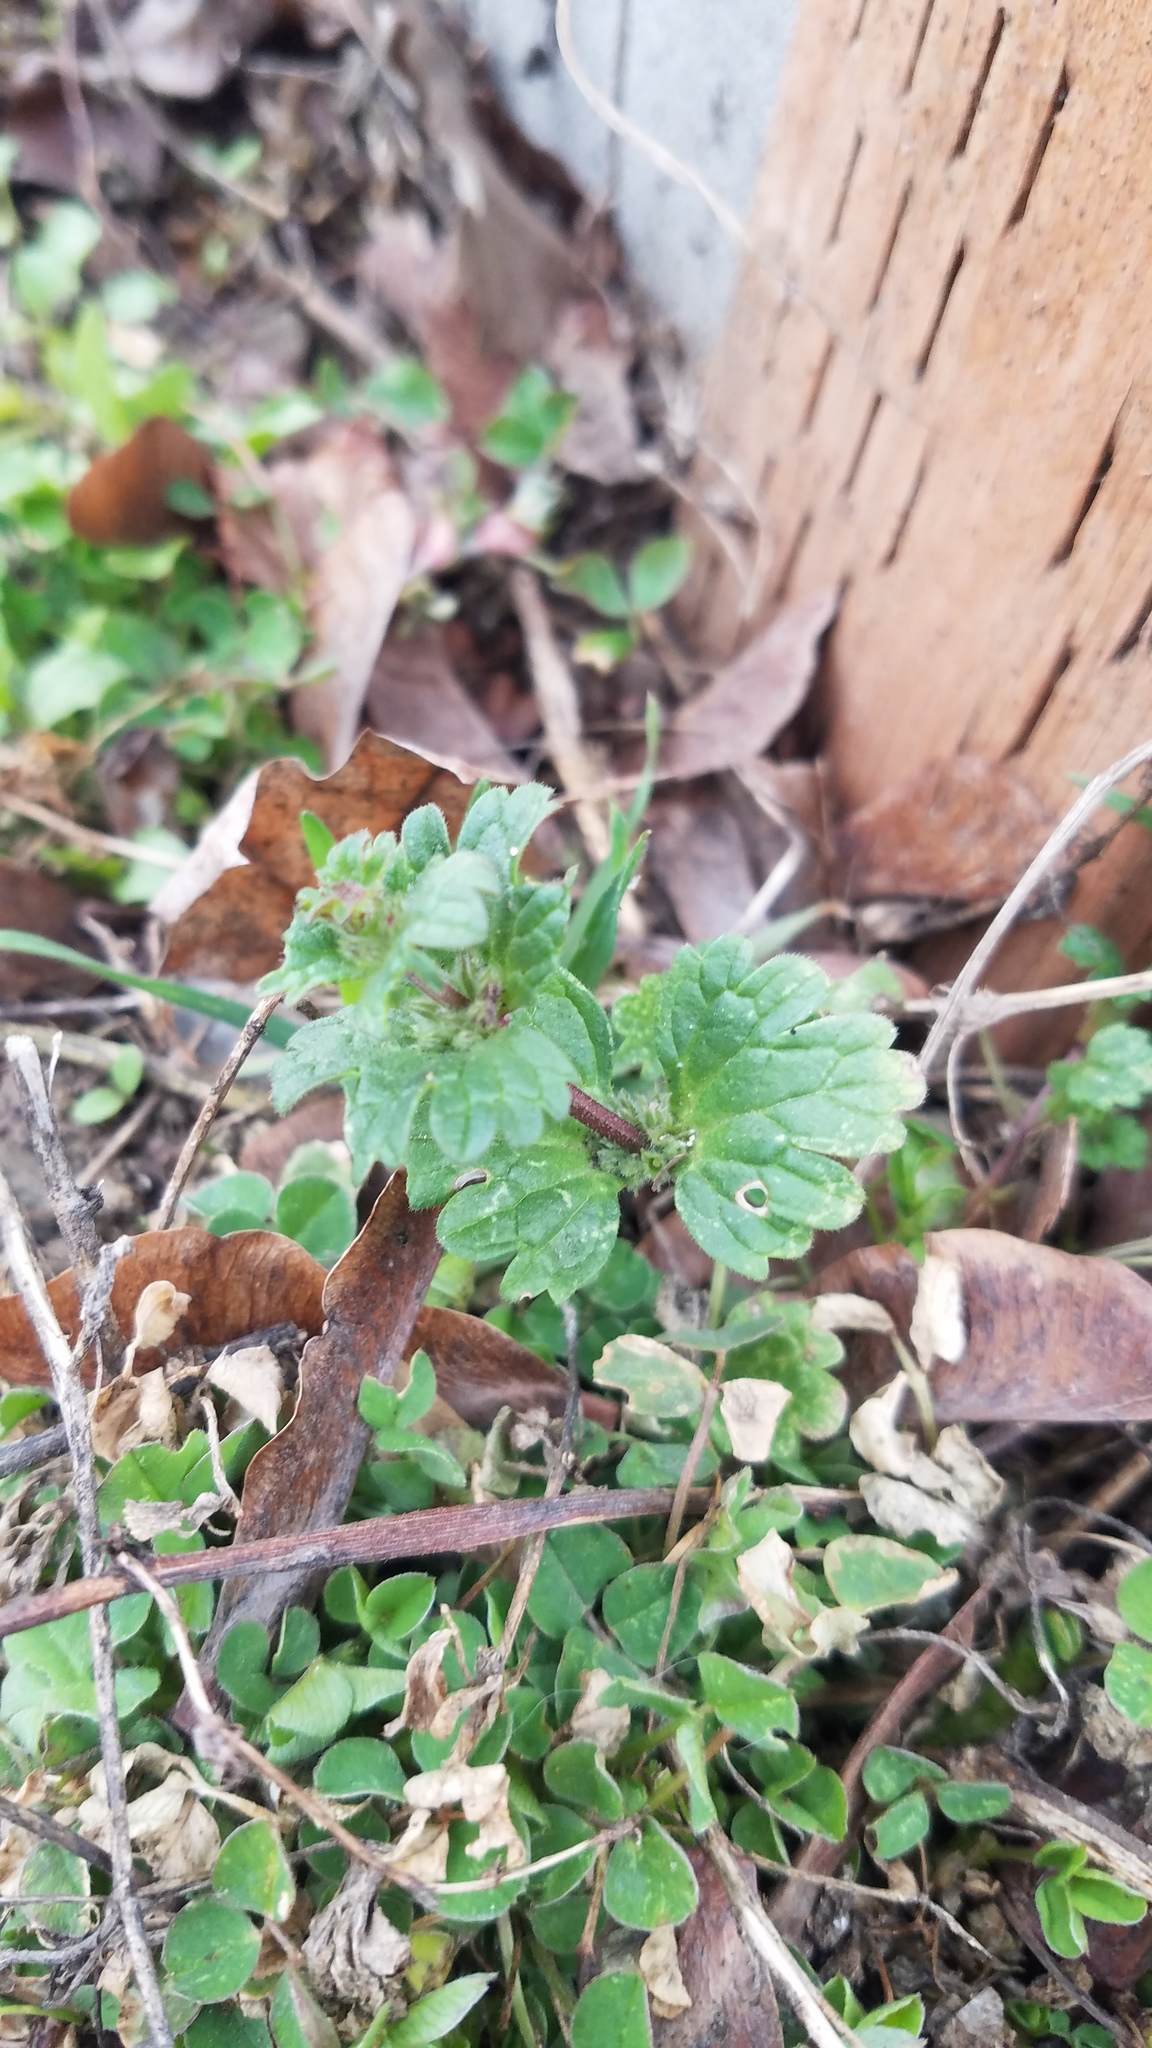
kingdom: Plantae
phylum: Tracheophyta
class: Magnoliopsida
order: Lamiales
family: Lamiaceae
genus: Lamium
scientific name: Lamium amplexicaule
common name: Henbit dead-nettle
